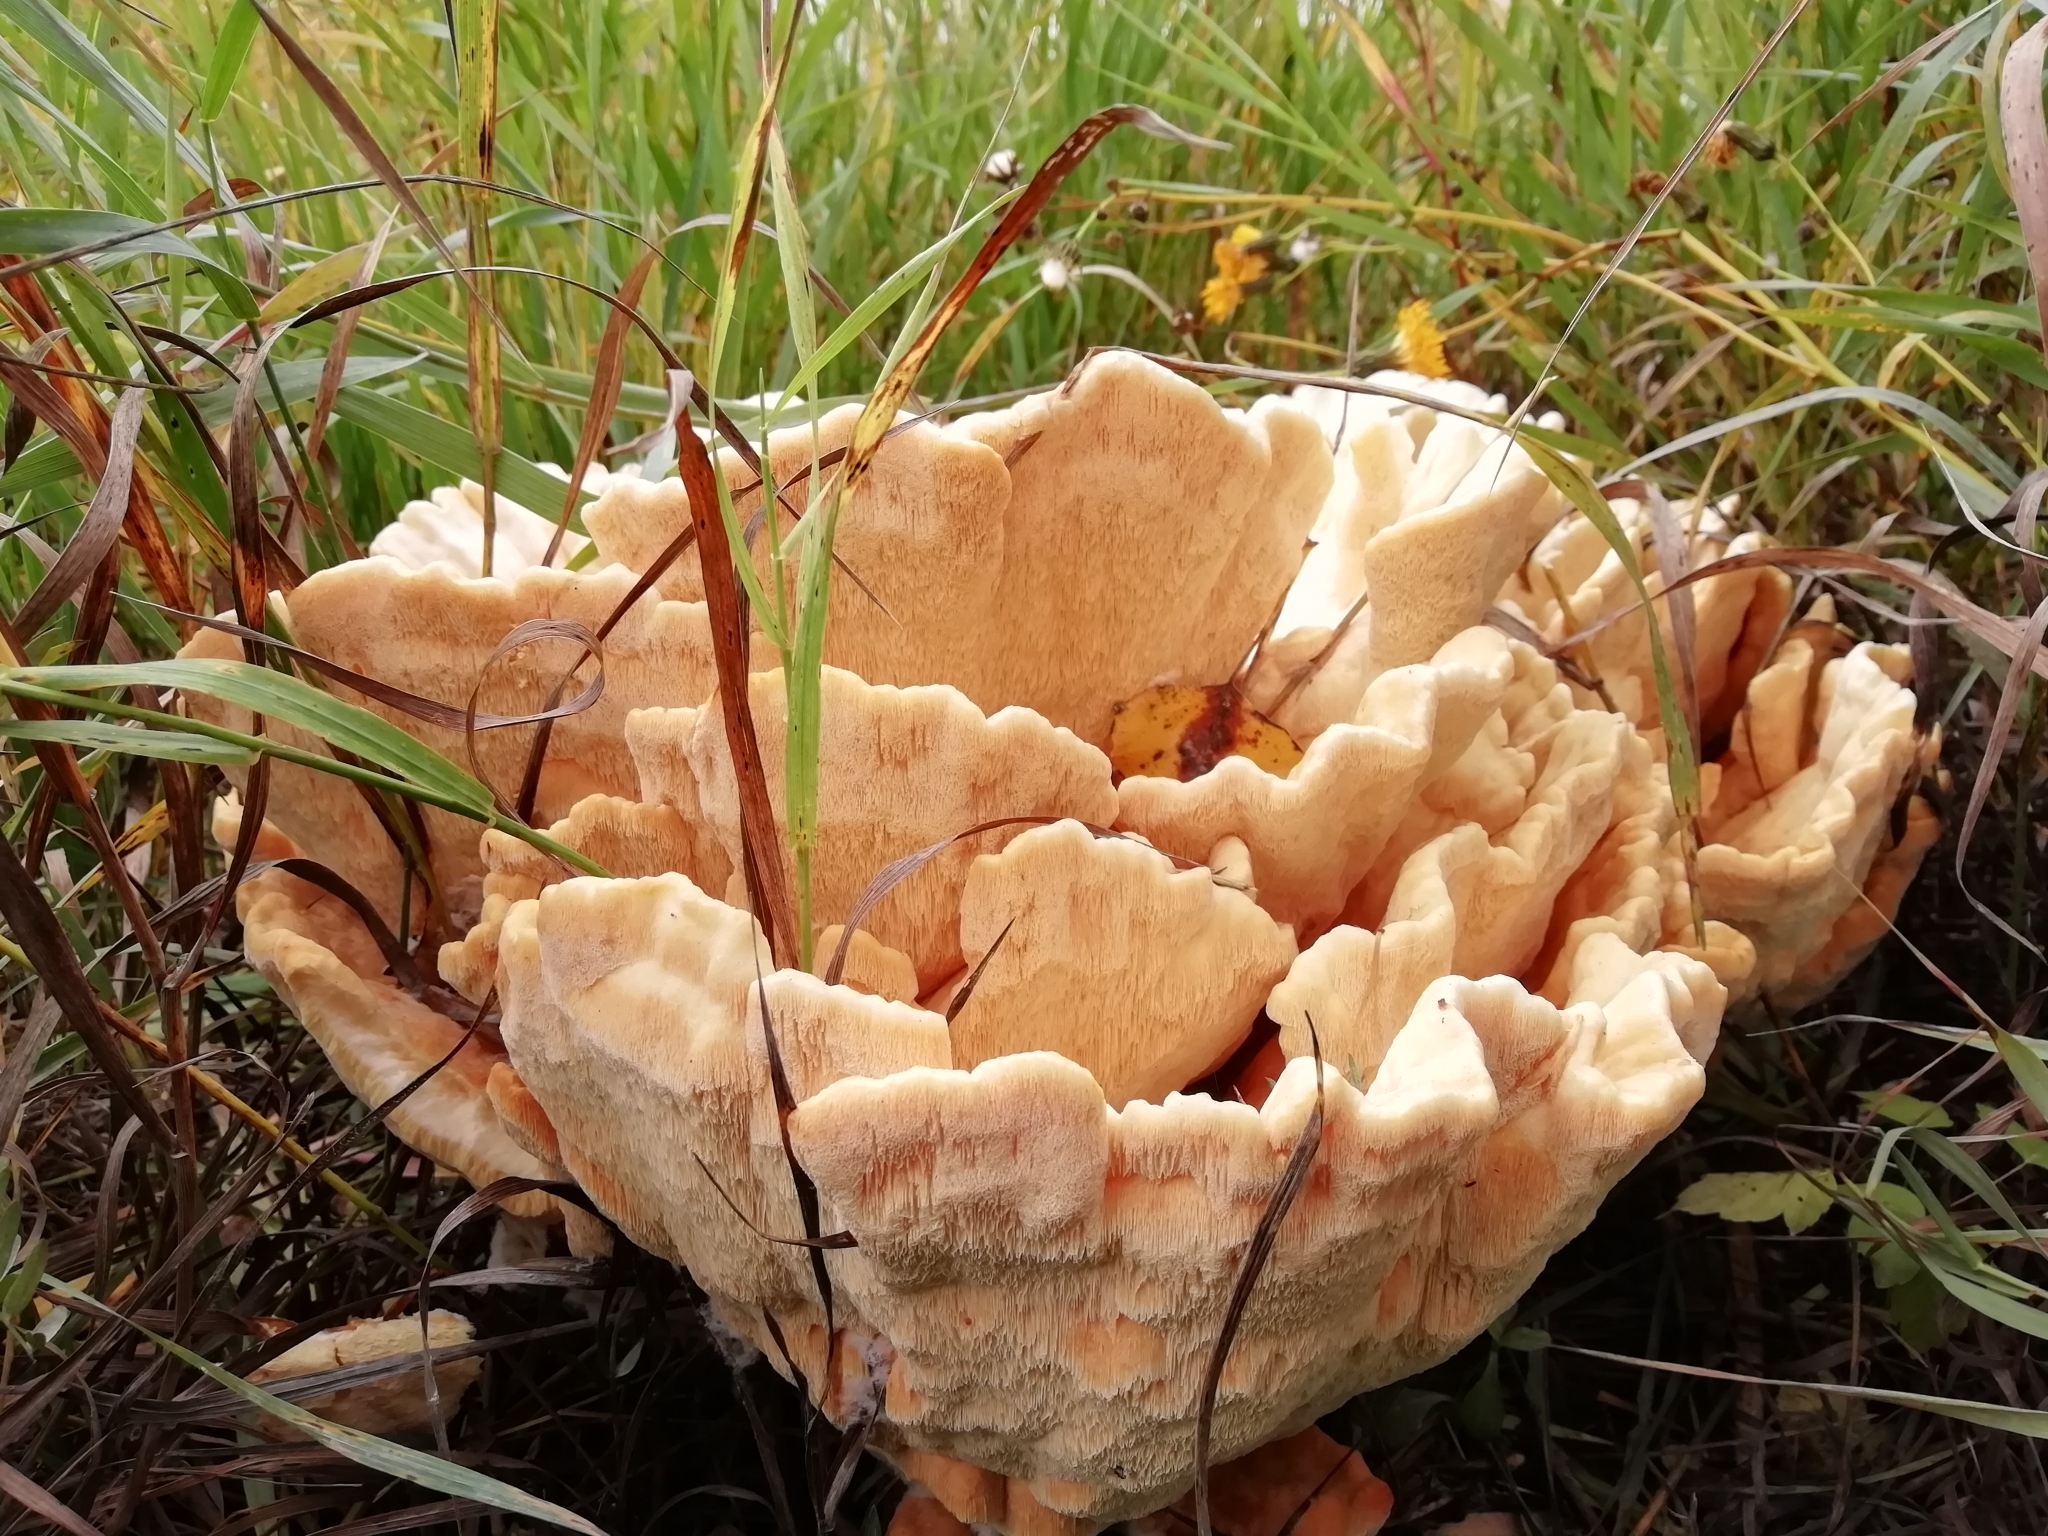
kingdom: Fungi
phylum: Basidiomycota
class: Agaricomycetes
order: Polyporales
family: Laetiporaceae
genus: Laetiporus
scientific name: Laetiporus sulphureus
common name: Chicken of the woods
